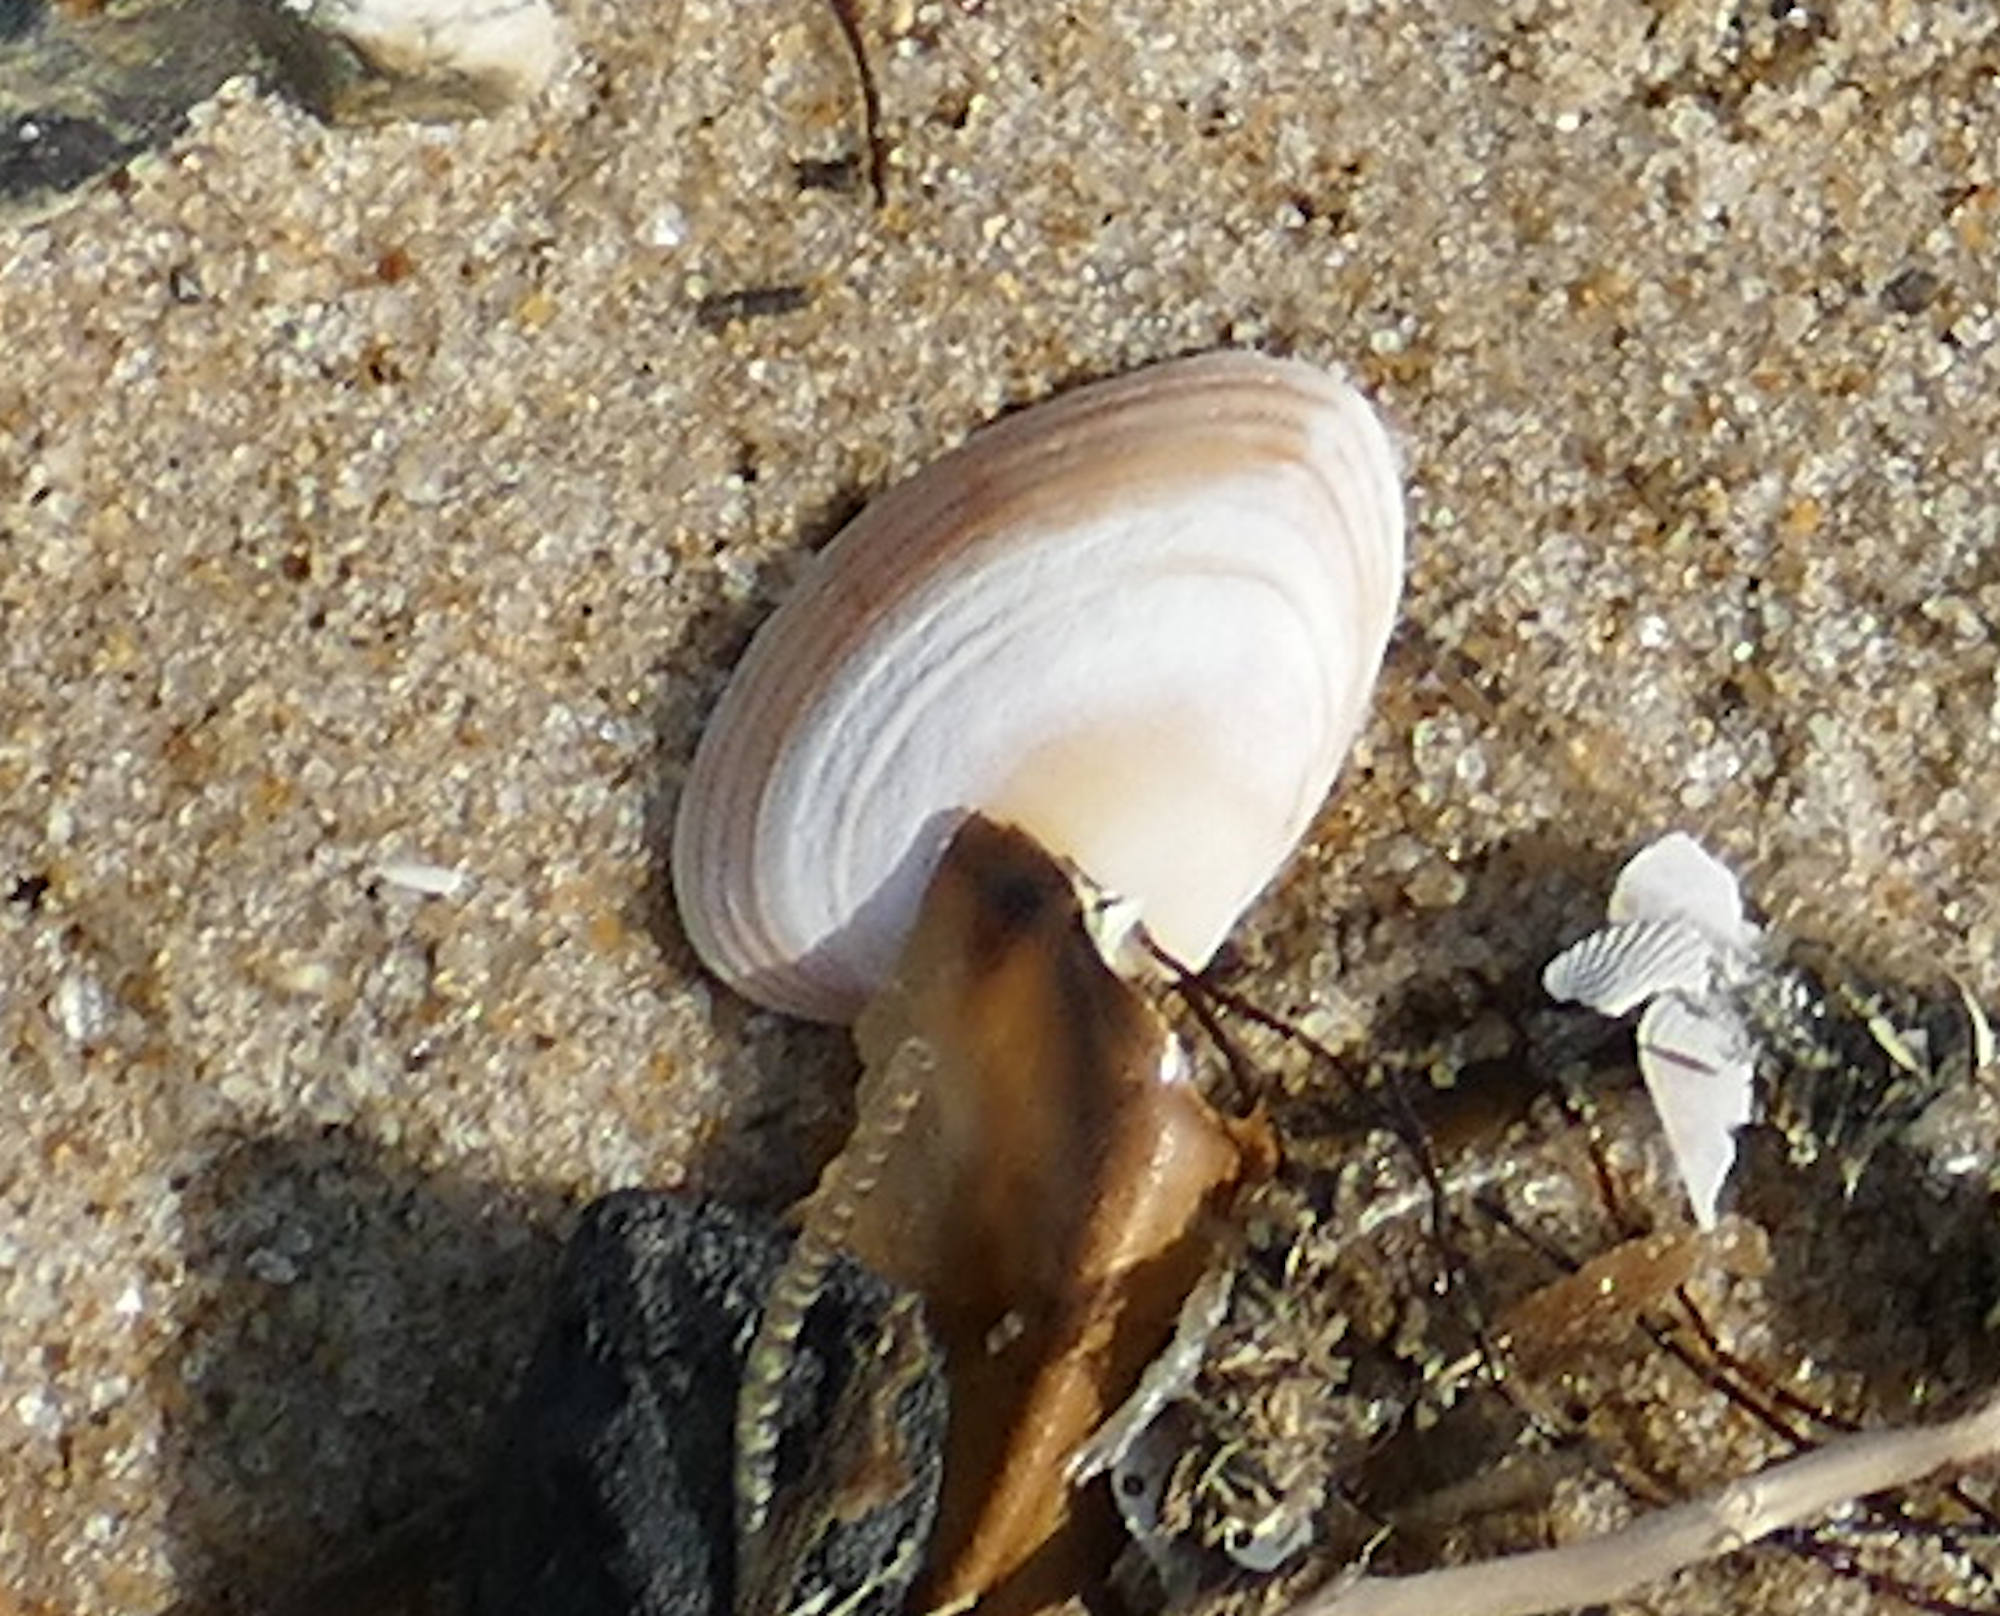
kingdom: Animalia
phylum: Mollusca
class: Bivalvia
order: Venerida
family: Mactridae
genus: Spisula
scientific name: Spisula solidissima
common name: Atlantic surf clam
